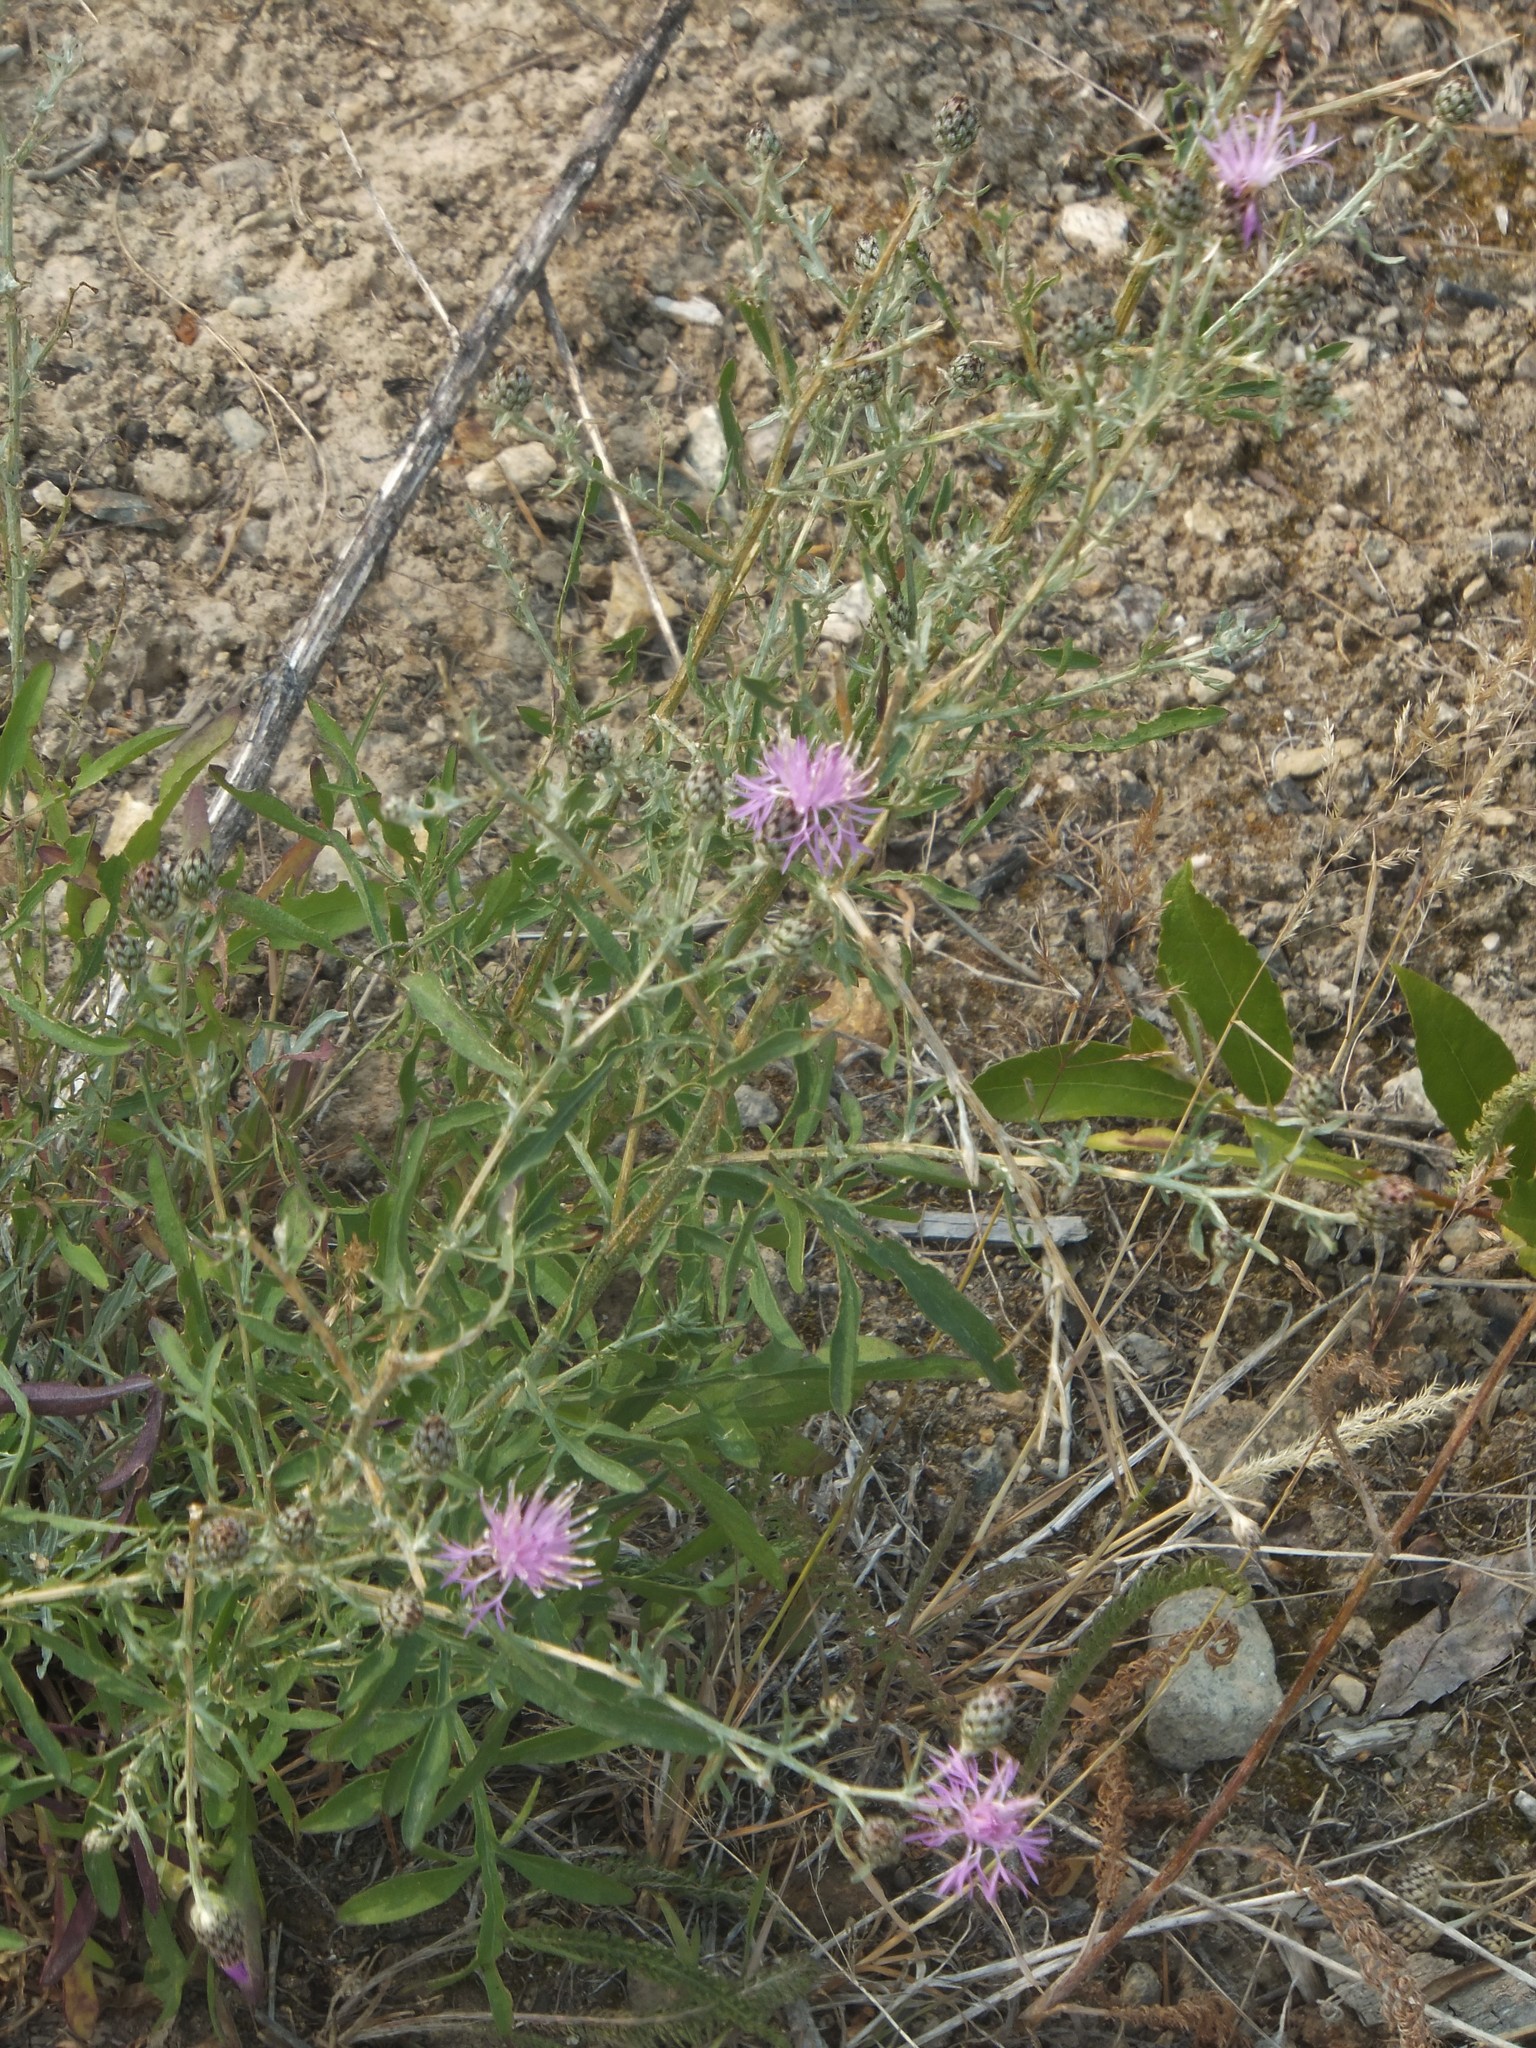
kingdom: Plantae
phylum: Tracheophyta
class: Magnoliopsida
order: Asterales
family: Asteraceae
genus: Centaurea
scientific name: Centaurea stoebe
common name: Spotted knapweed
